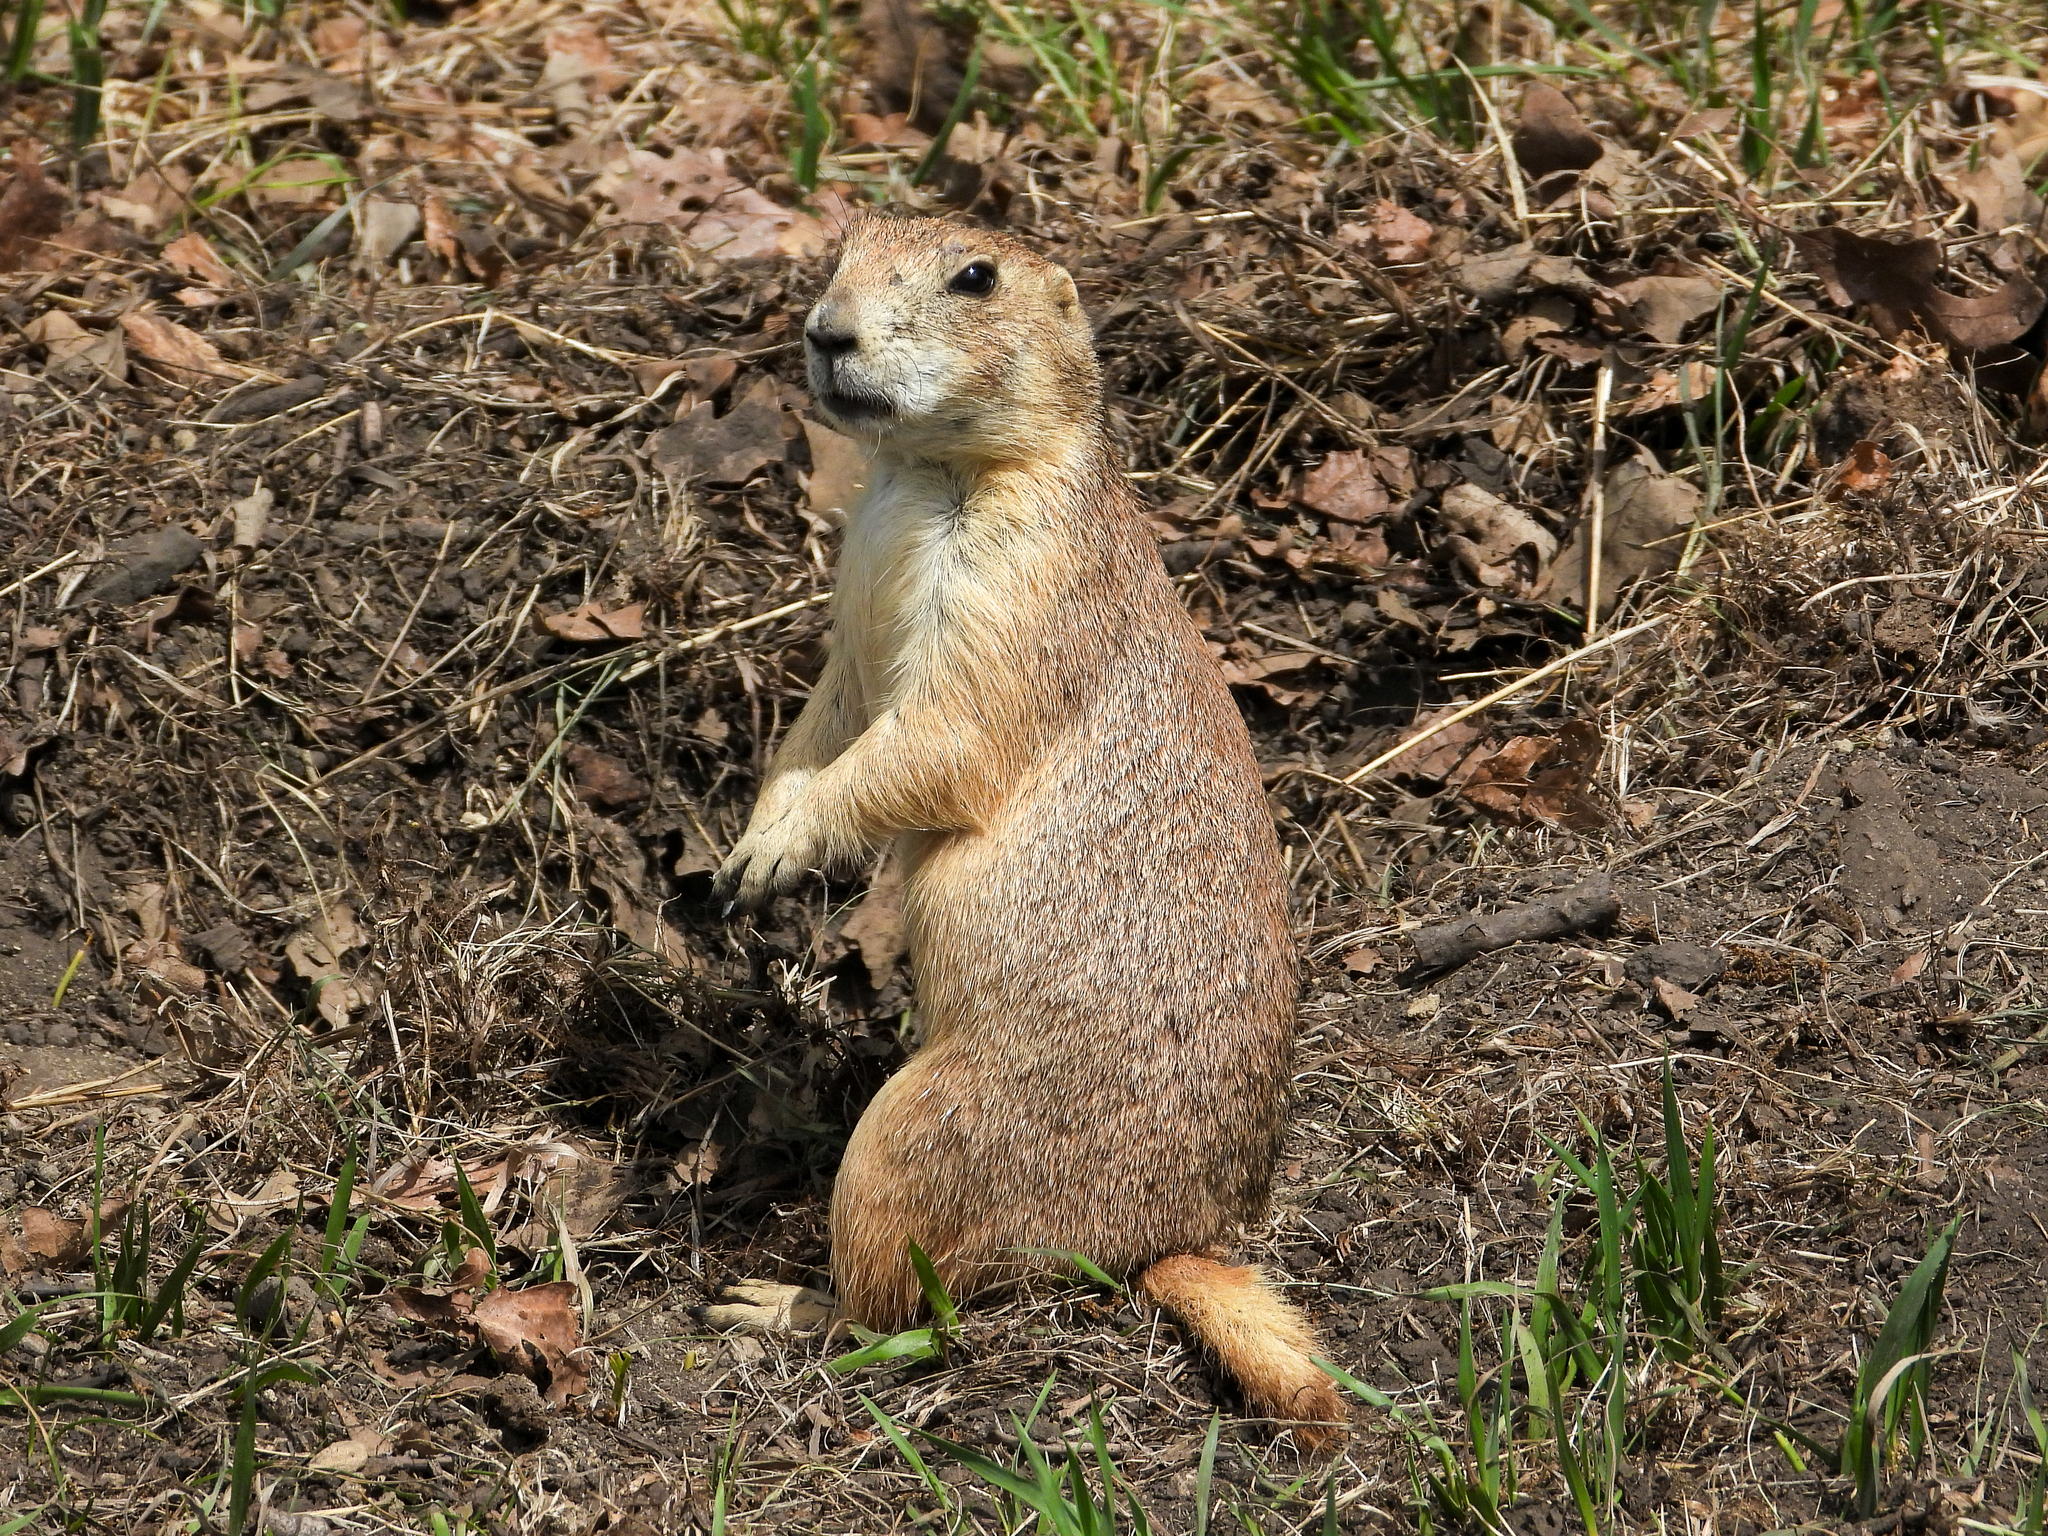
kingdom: Animalia
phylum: Chordata
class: Mammalia
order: Rodentia
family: Sciuridae
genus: Cynomys
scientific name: Cynomys ludovicianus
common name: Black-tailed prairie dog
